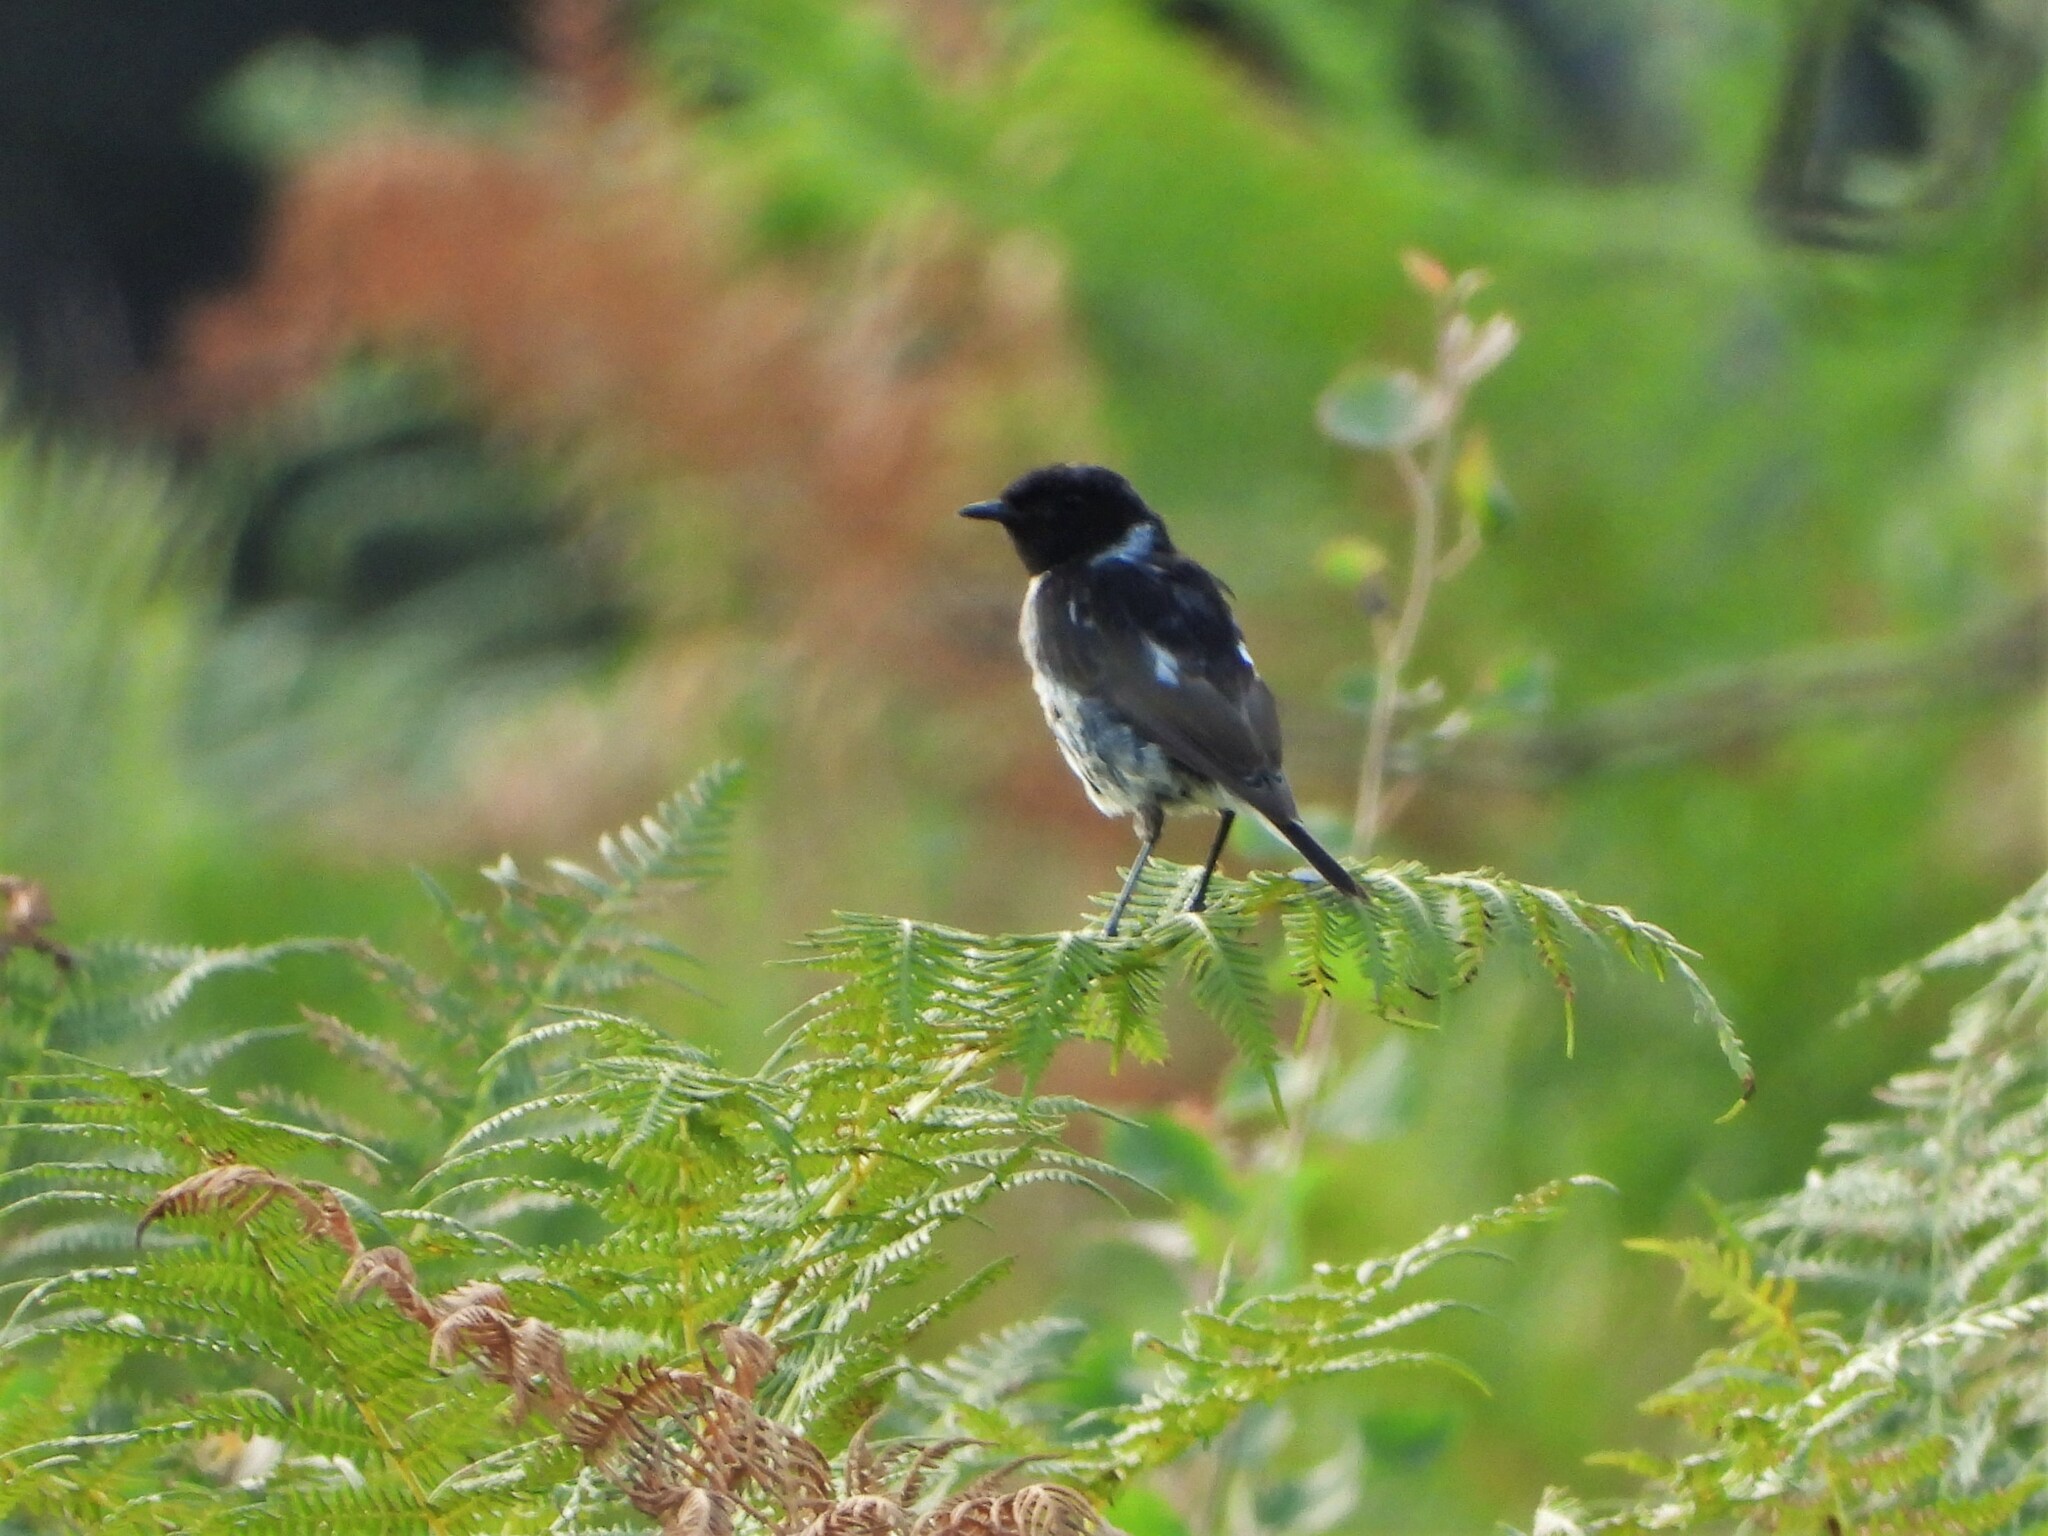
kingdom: Animalia
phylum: Chordata
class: Aves
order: Passeriformes
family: Muscicapidae
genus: Saxicola
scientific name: Saxicola rubicola
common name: European stonechat
